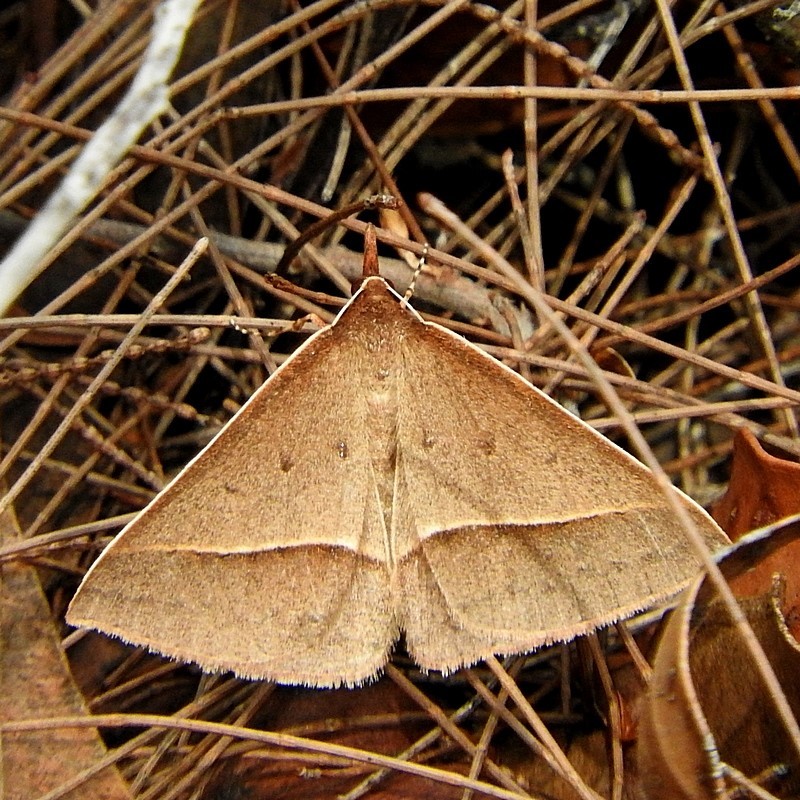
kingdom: Animalia
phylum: Arthropoda
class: Insecta
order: Lepidoptera
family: Geometridae
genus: Epidesmia
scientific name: Epidesmia tryxaria
